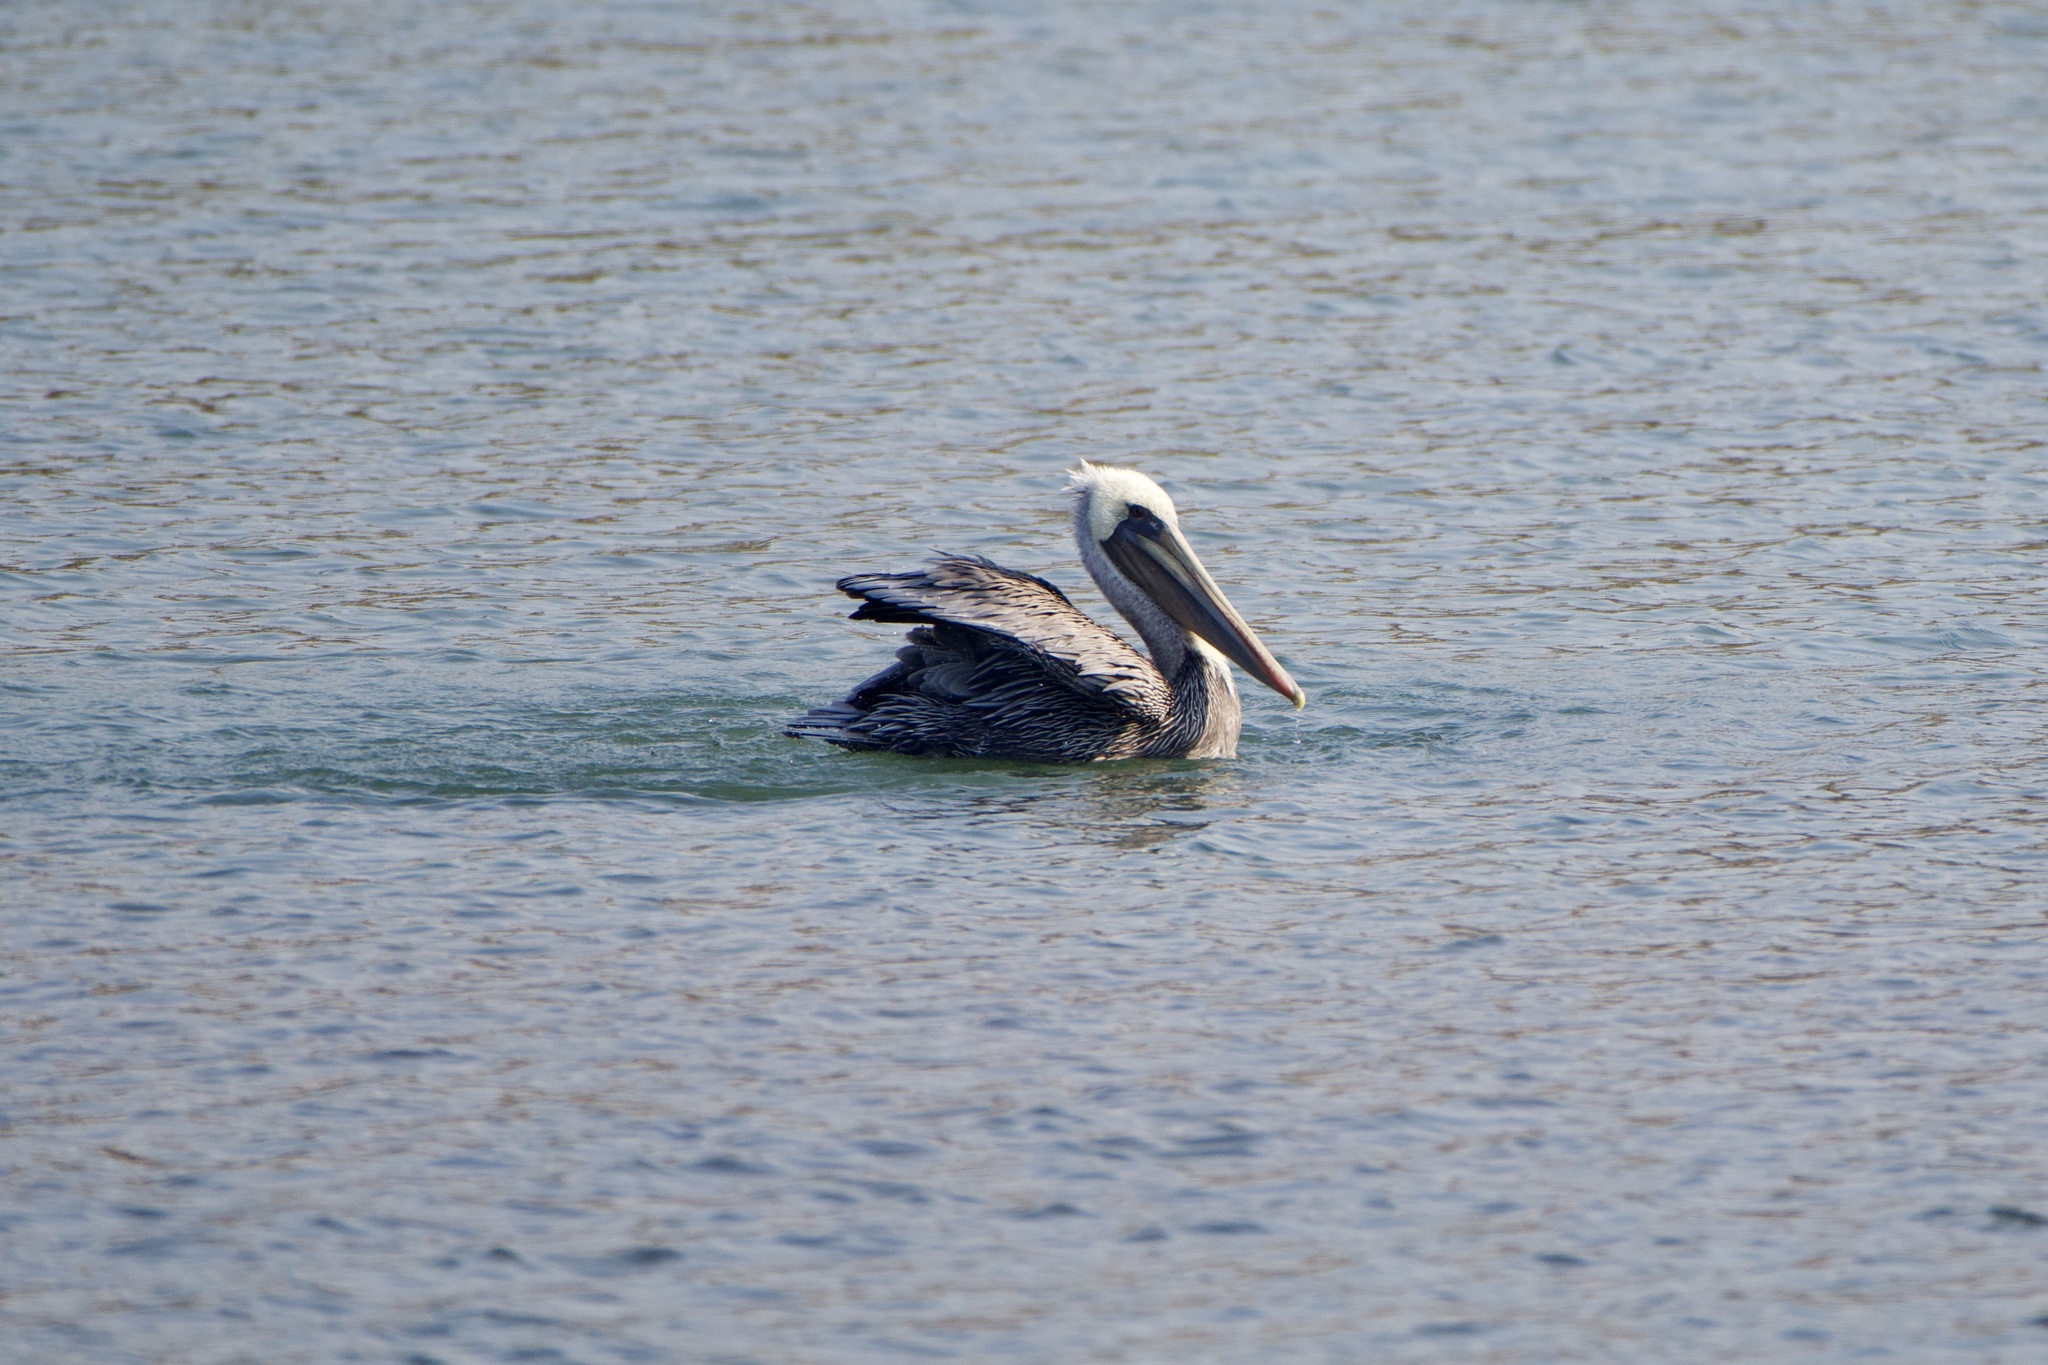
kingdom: Animalia
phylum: Chordata
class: Aves
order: Pelecaniformes
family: Pelecanidae
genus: Pelecanus
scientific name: Pelecanus occidentalis
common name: Brown pelican
